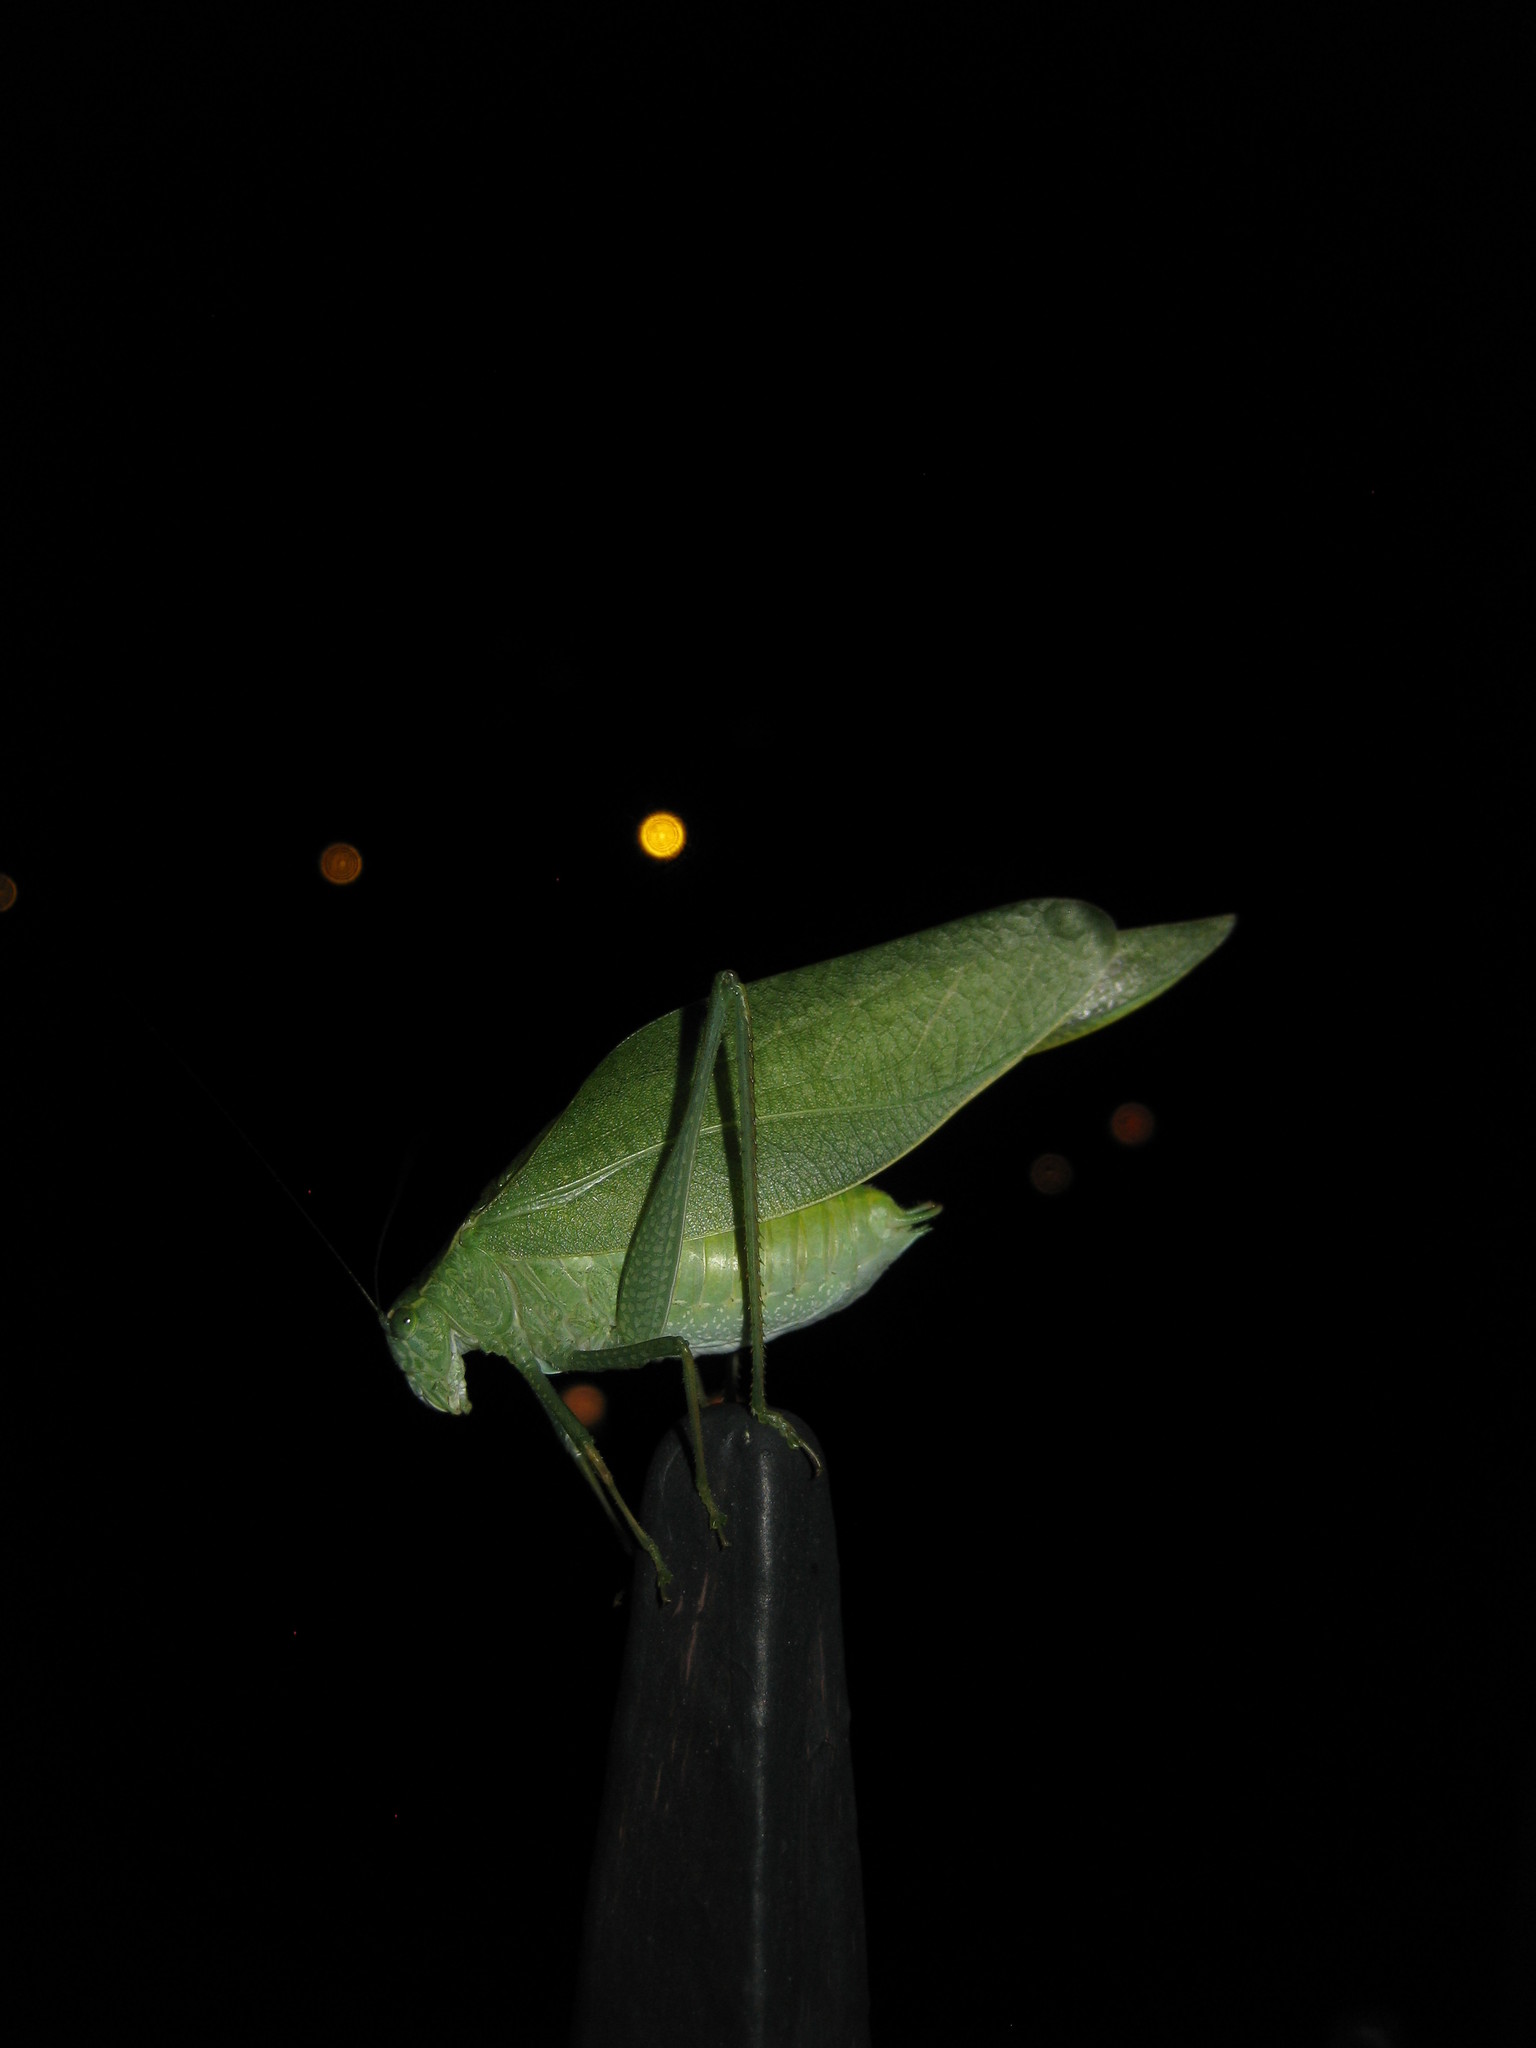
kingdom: Animalia
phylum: Arthropoda
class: Insecta
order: Orthoptera
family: Tettigoniidae
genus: Microcentrum
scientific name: Microcentrum rhombifolium
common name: Broad-winged katydid
